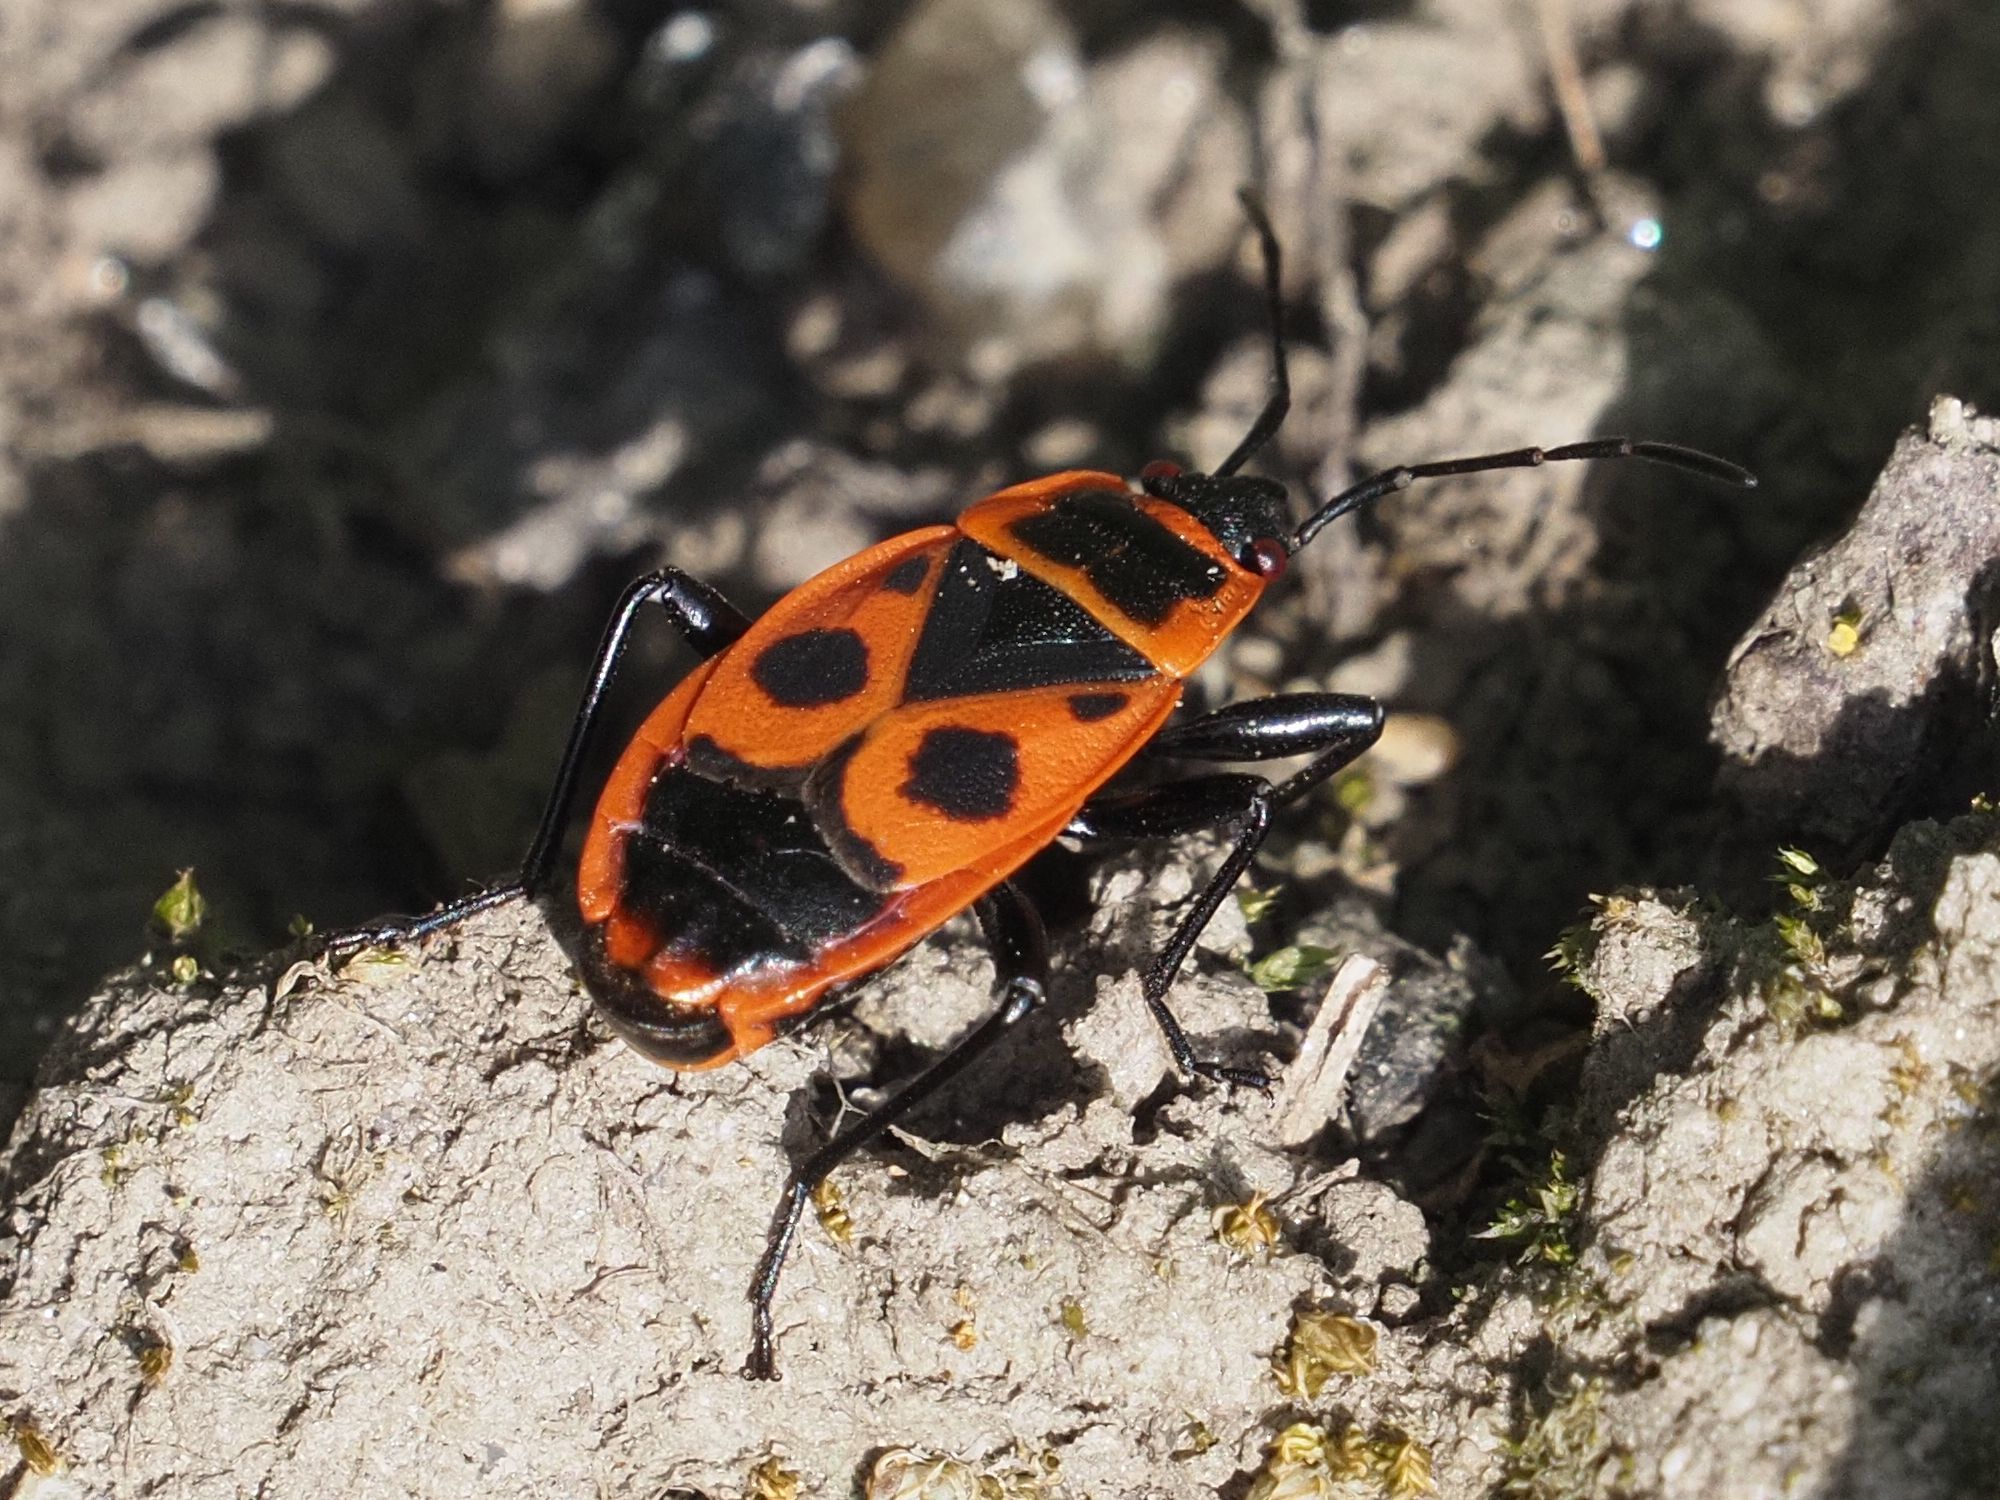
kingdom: Animalia
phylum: Arthropoda
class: Insecta
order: Hemiptera
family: Pyrrhocoridae
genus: Pyrrhocoris
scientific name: Pyrrhocoris apterus
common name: Firebug
